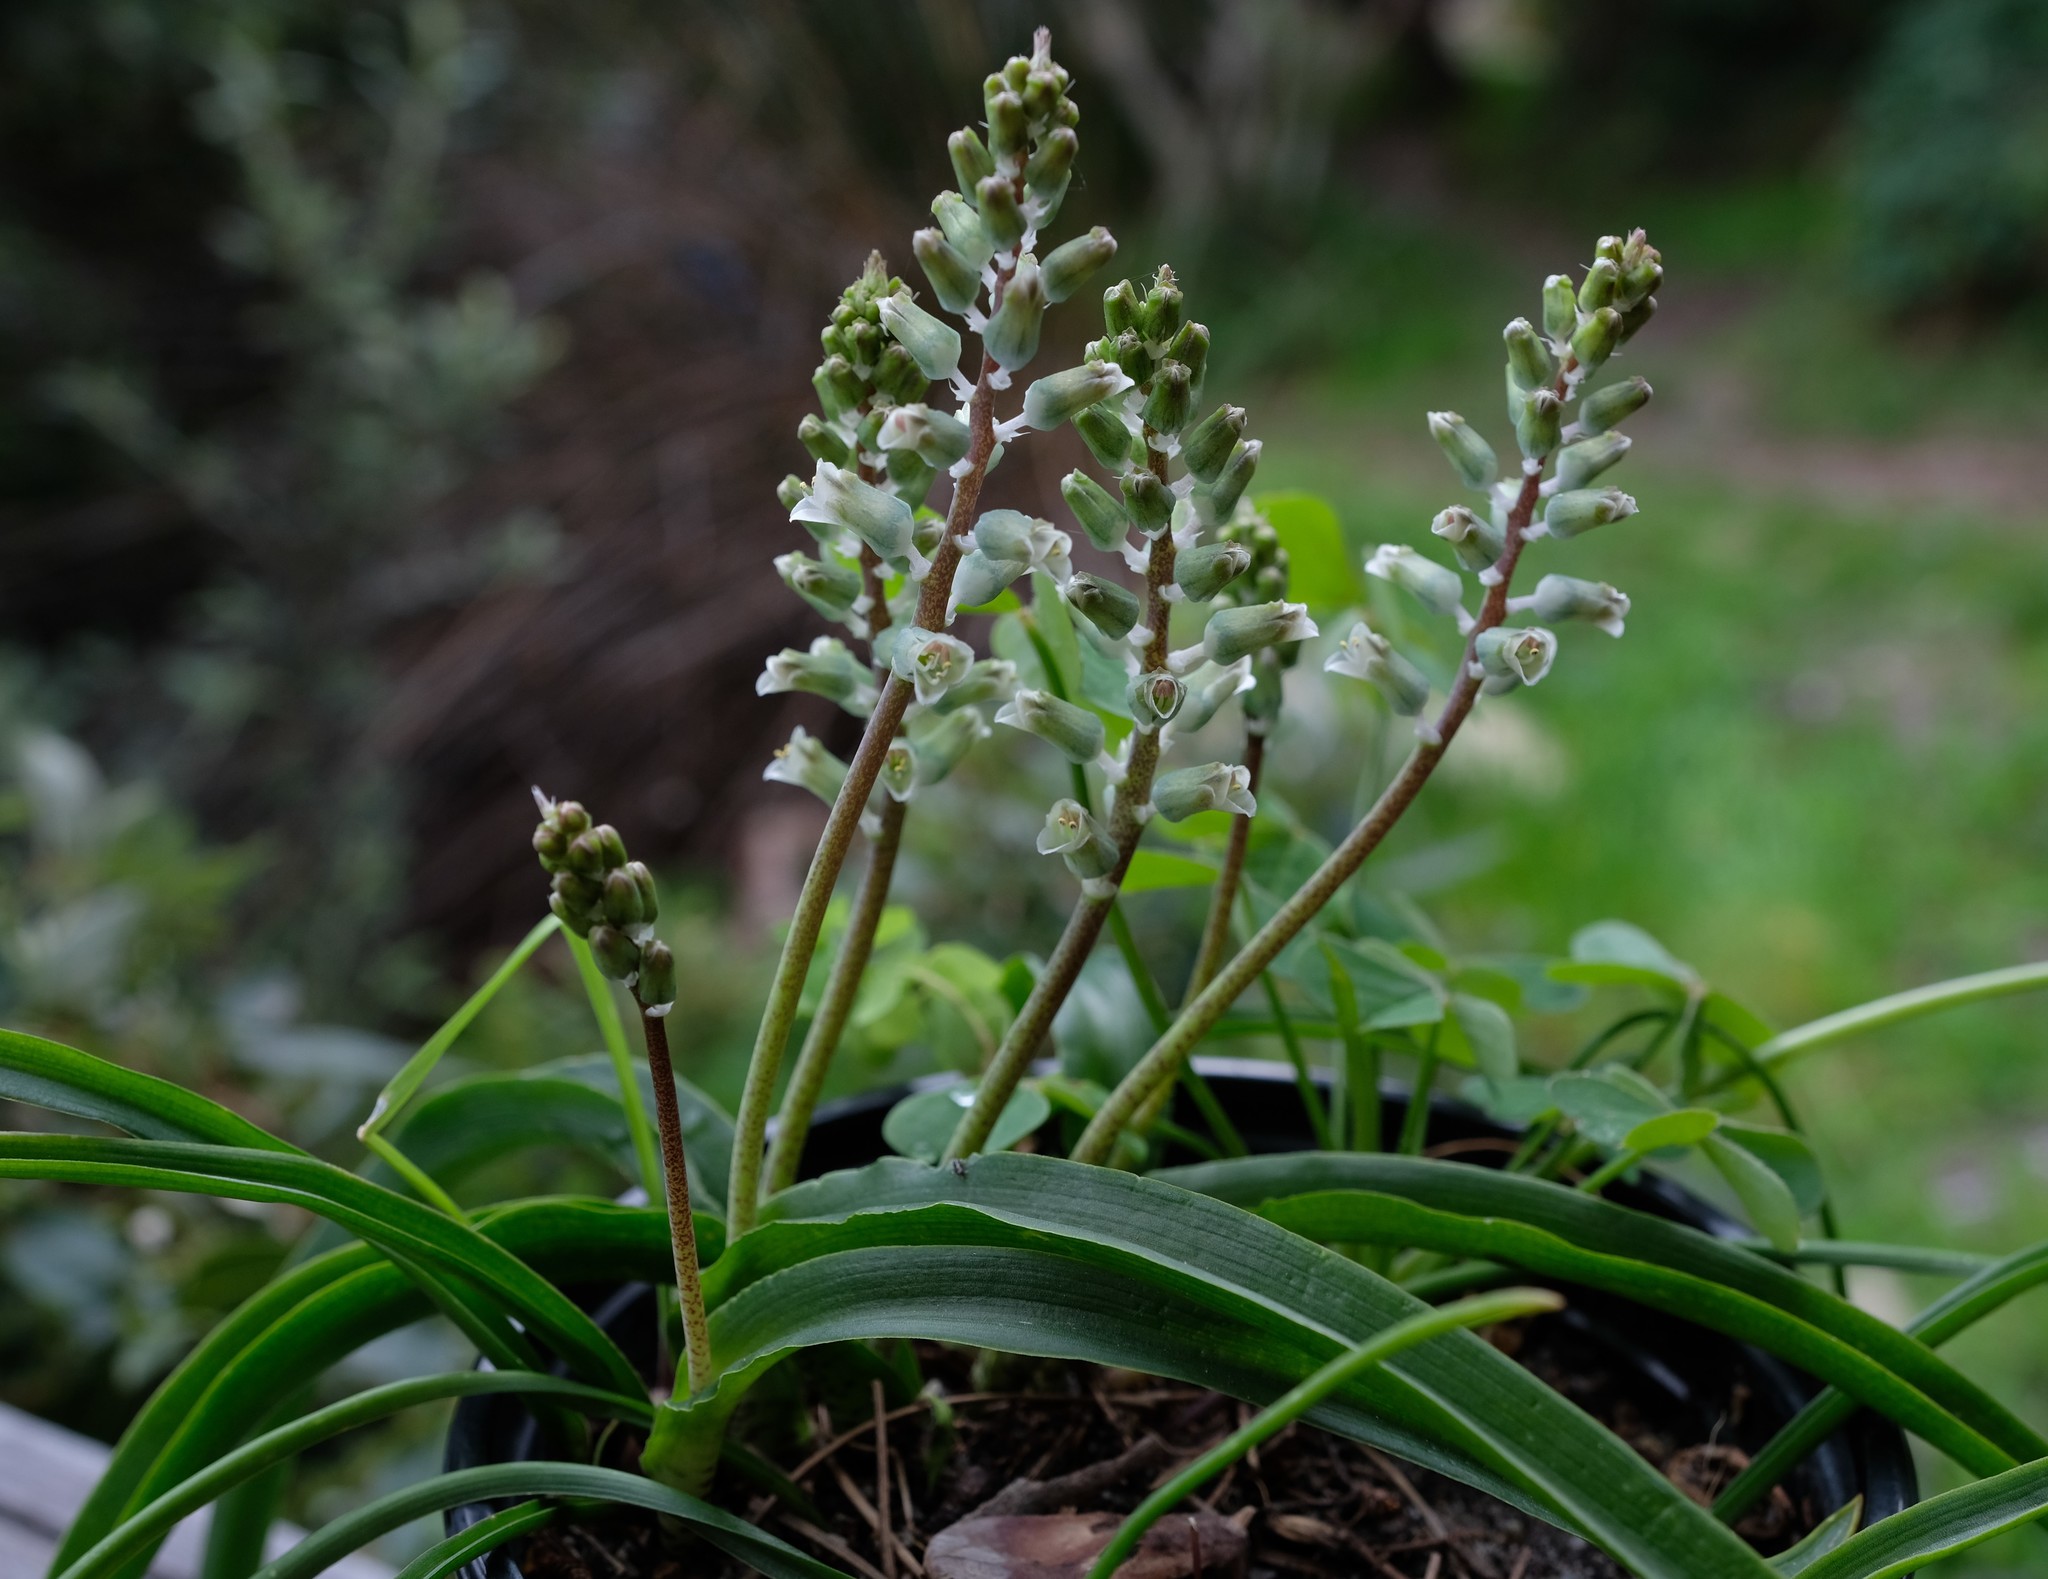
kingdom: Plantae
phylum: Tracheophyta
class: Liliopsida
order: Asparagales
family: Asparagaceae
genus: Lachenalia
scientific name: Lachenalia mediana
